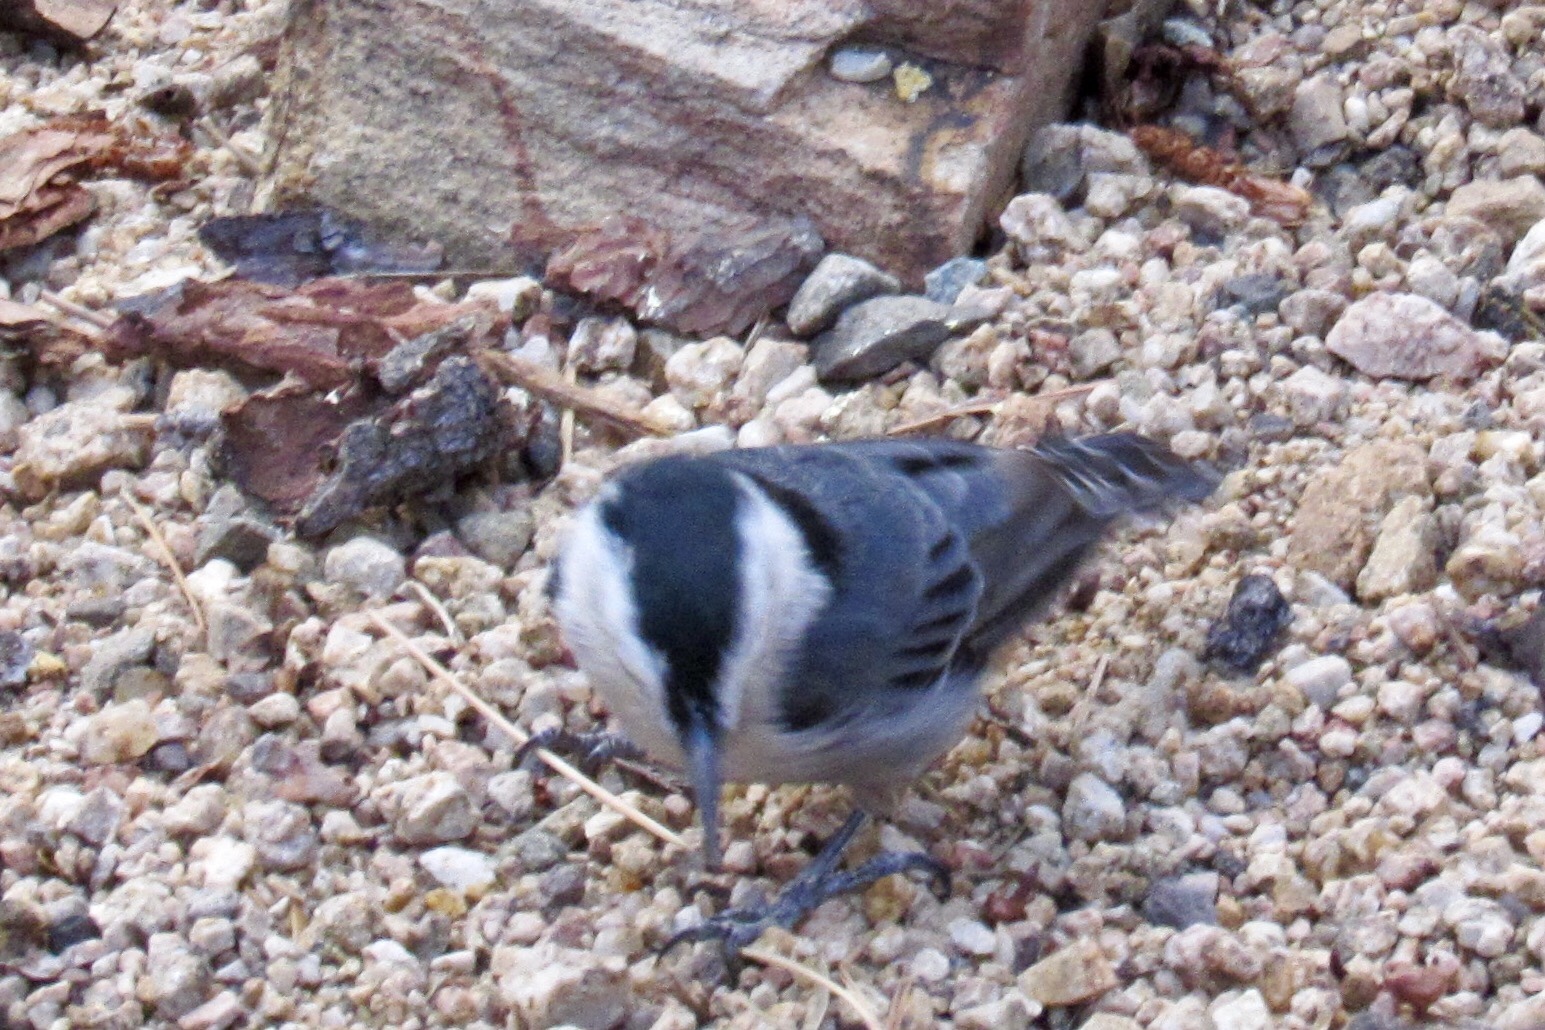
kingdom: Animalia
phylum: Chordata
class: Aves
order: Passeriformes
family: Sittidae
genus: Sitta
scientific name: Sitta carolinensis
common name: White-breasted nuthatch
